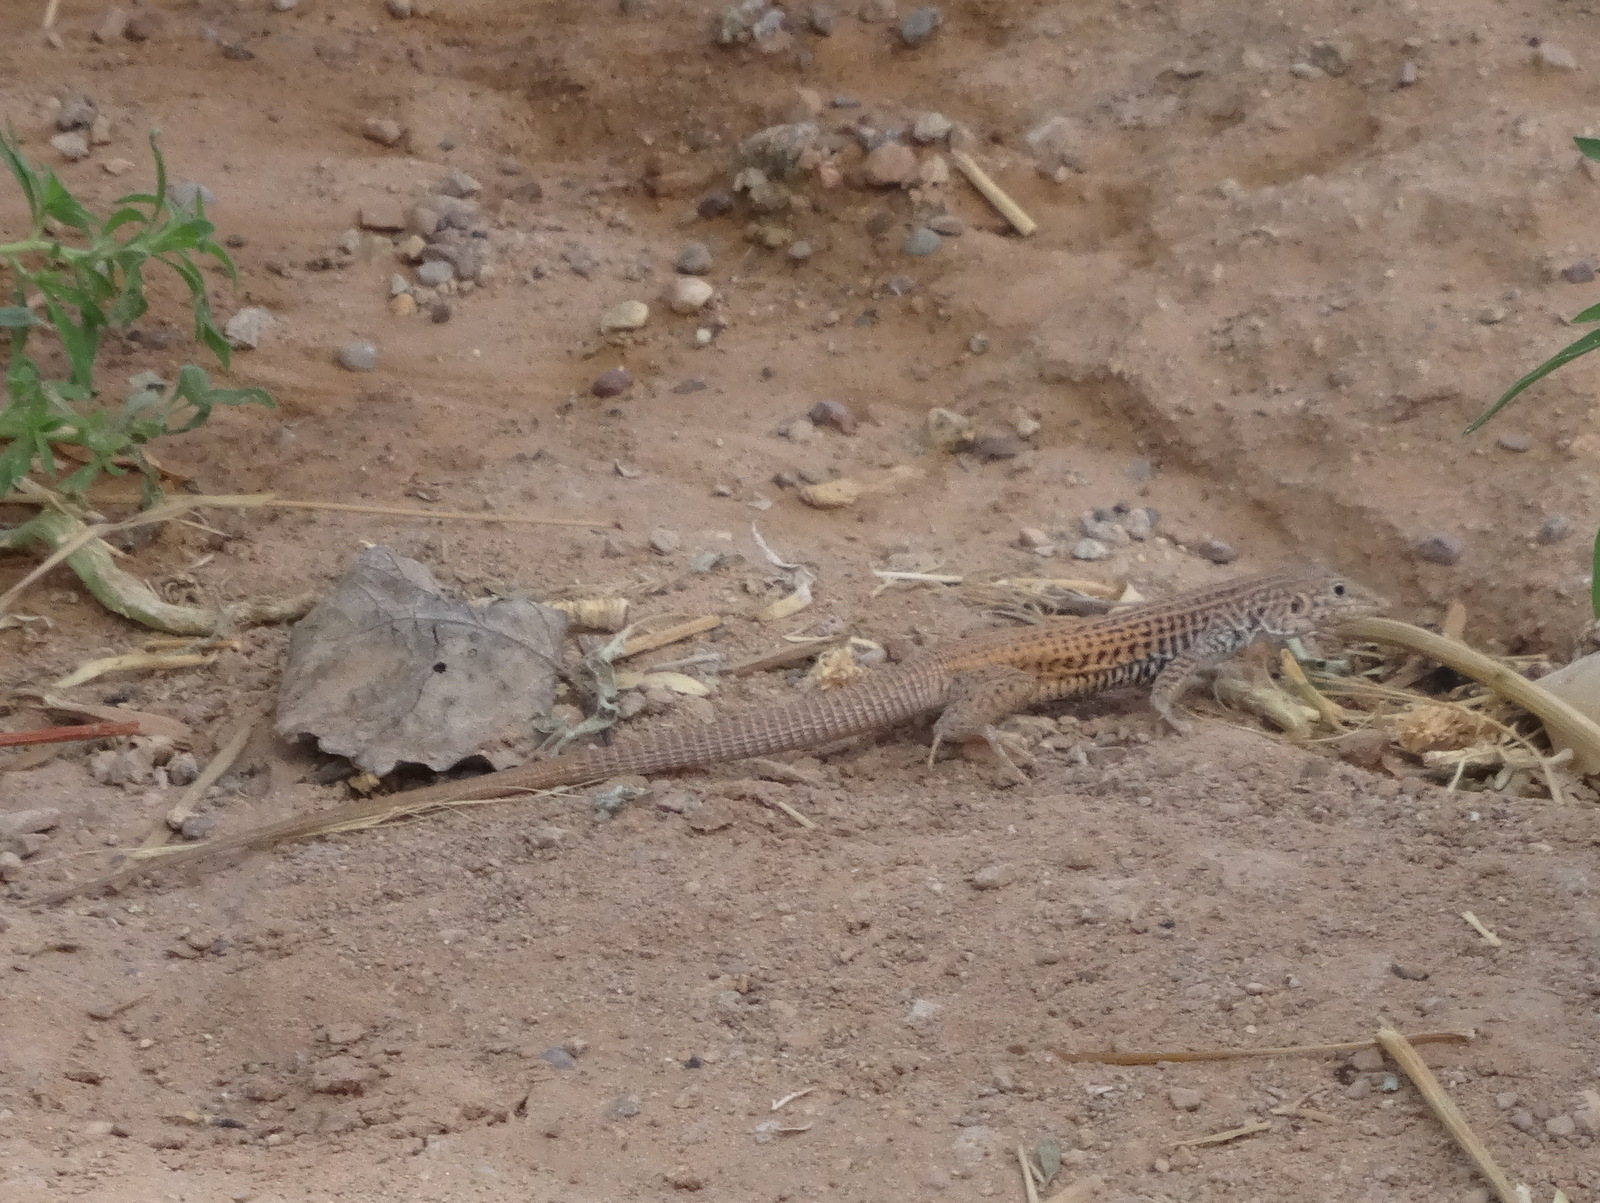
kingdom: Animalia
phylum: Chordata
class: Squamata
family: Teiidae
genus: Aspidoscelis
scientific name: Aspidoscelis tigris
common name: Tiger whiptail
